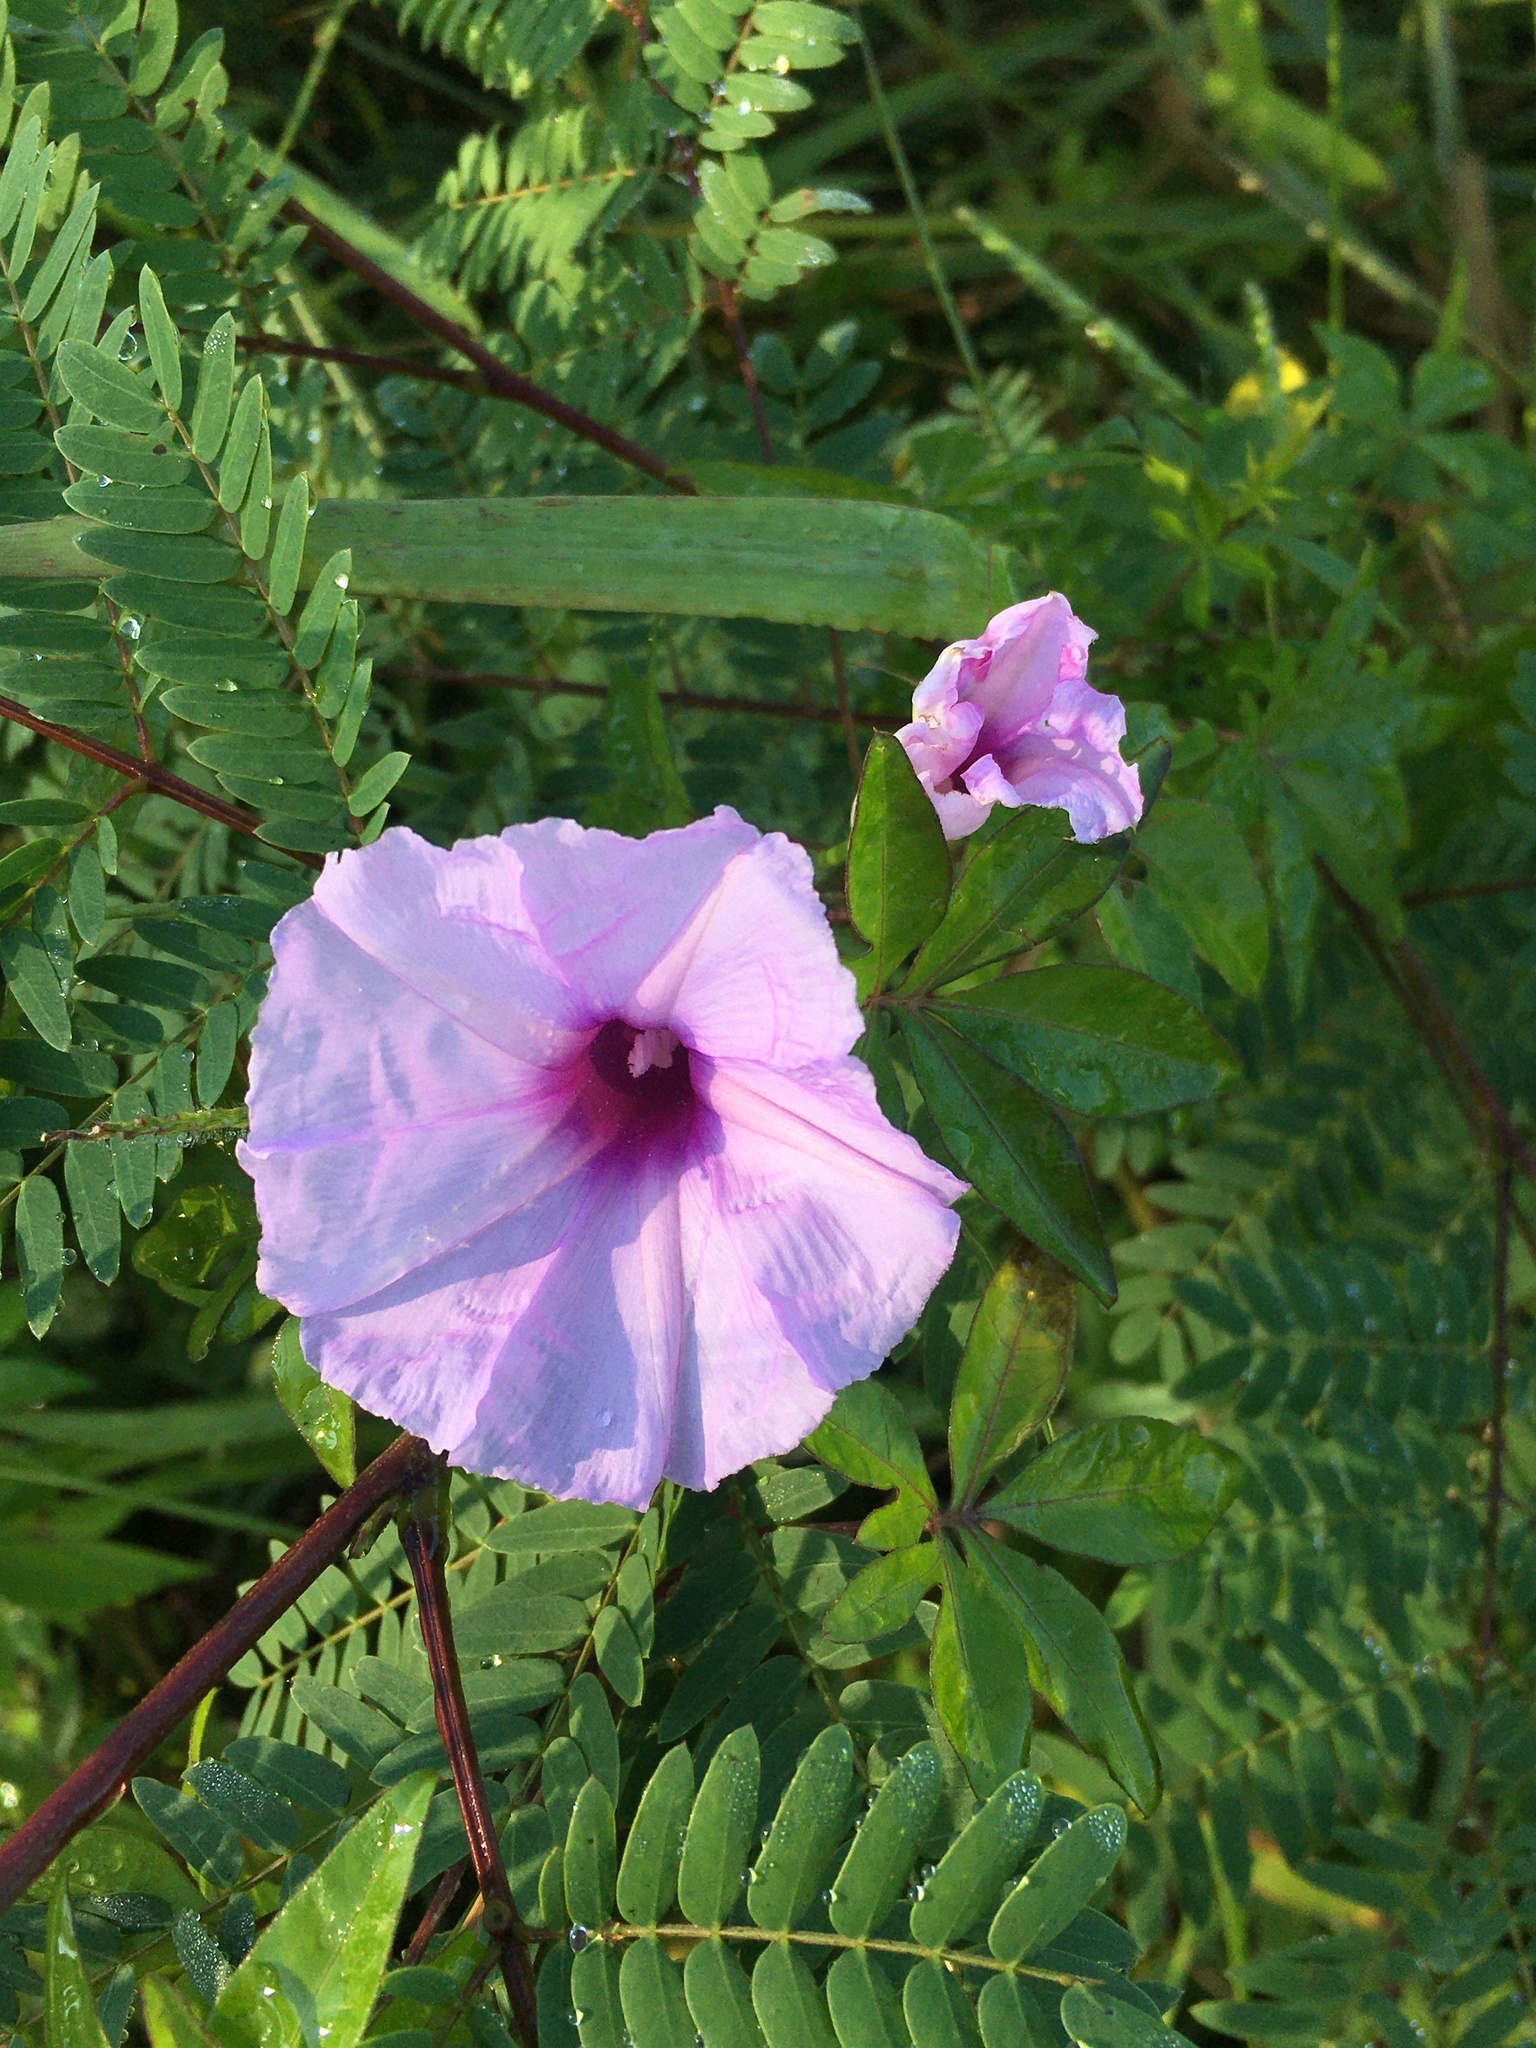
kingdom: Plantae
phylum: Tracheophyta
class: Magnoliopsida
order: Solanales
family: Convolvulaceae
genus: Ipomoea
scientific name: Ipomoea cairica
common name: Mile a minute vine
